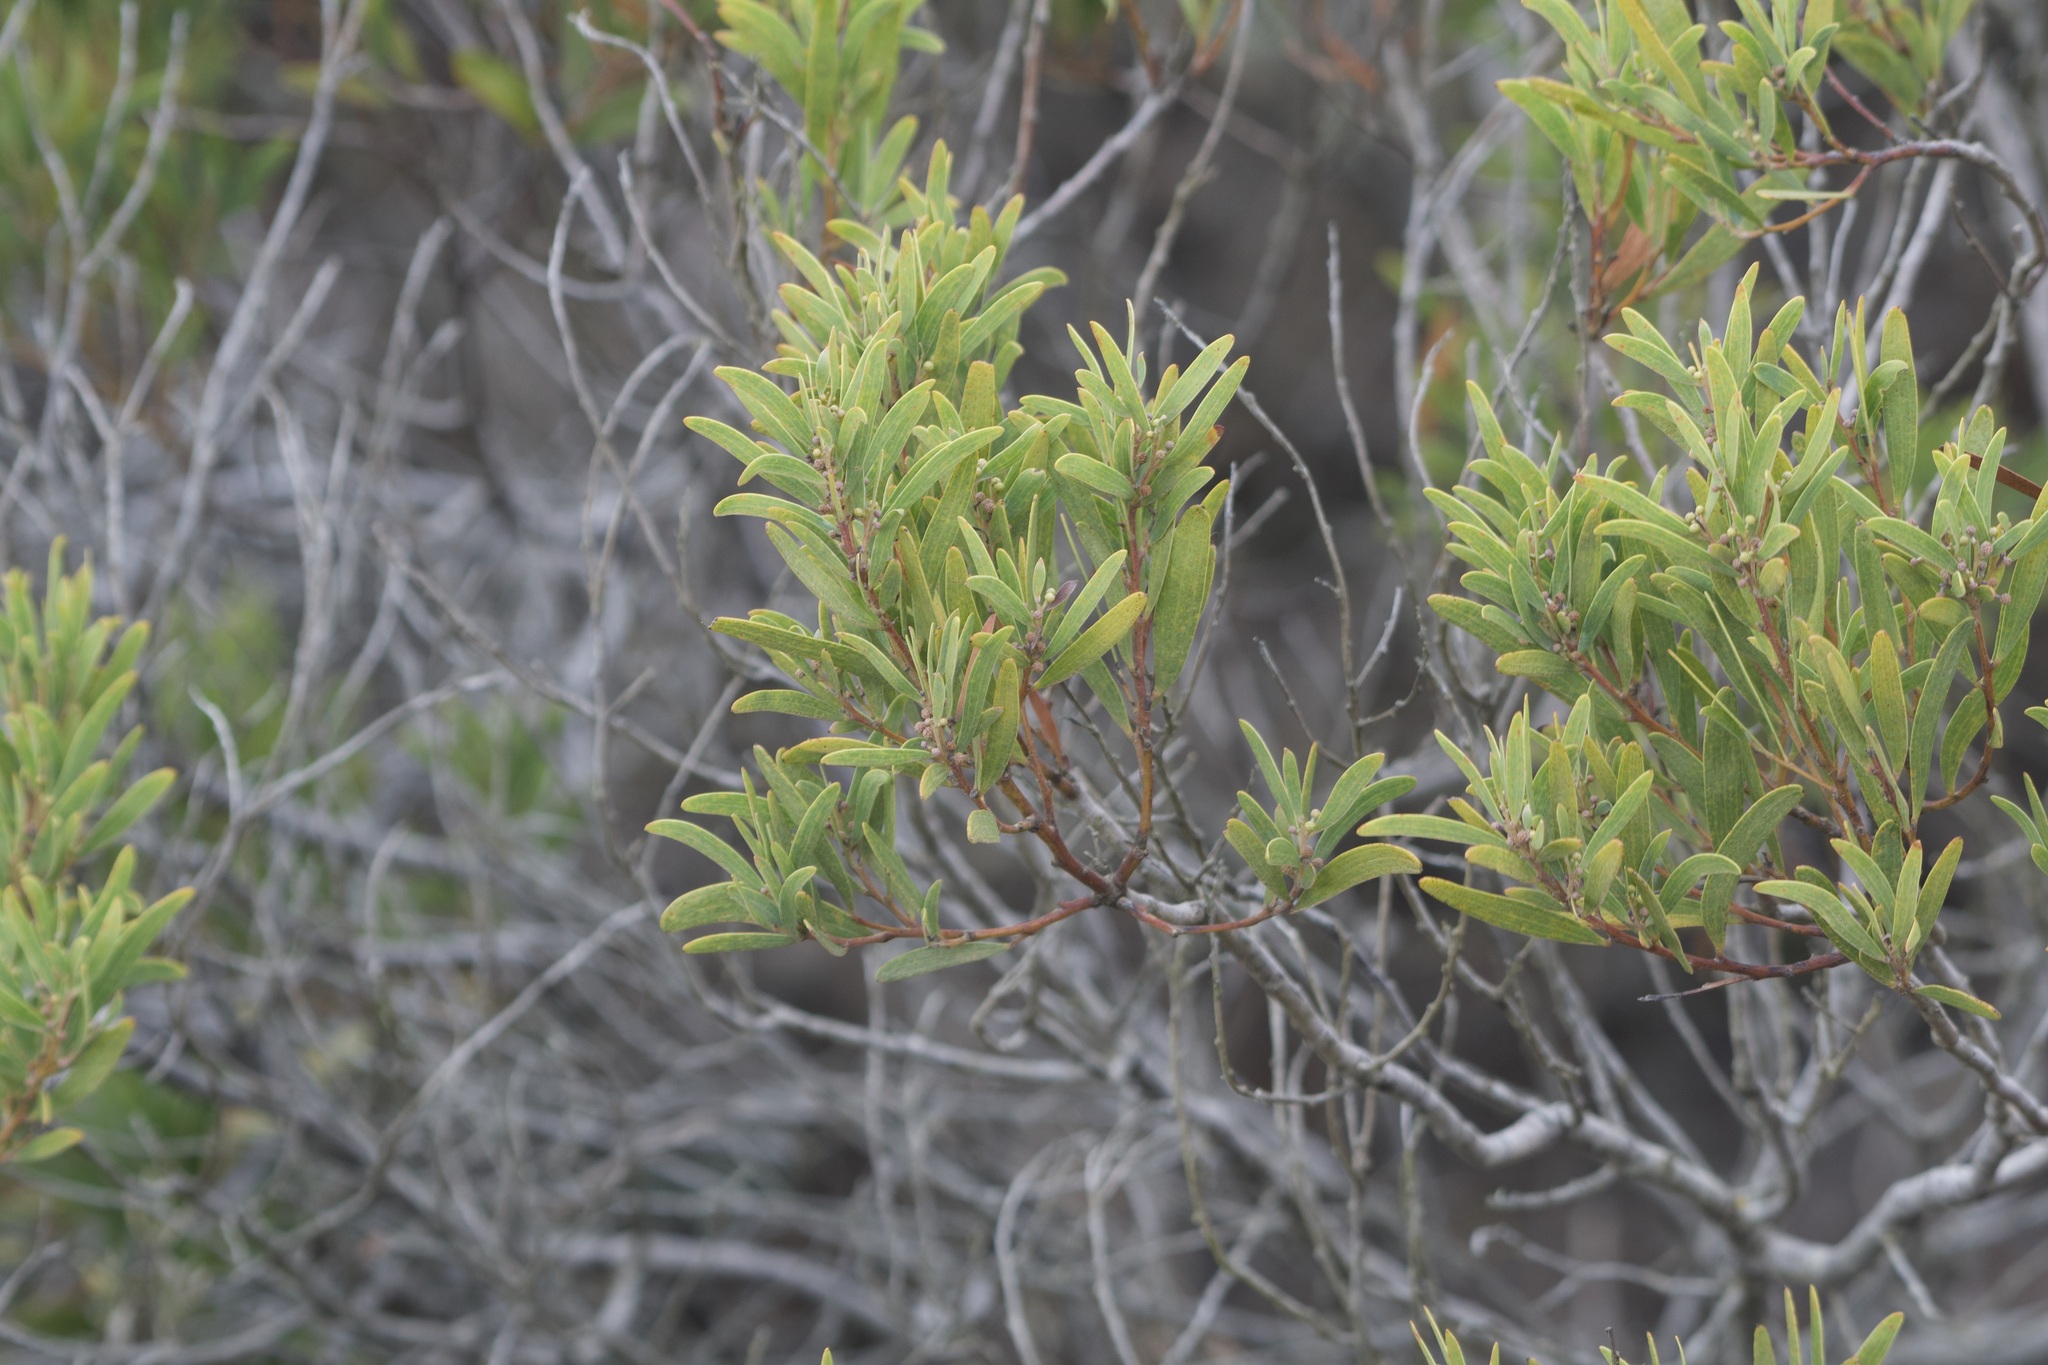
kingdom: Plantae
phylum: Tracheophyta
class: Magnoliopsida
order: Fabales
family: Fabaceae
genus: Acacia
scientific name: Acacia cyclops
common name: Coastal wattle
